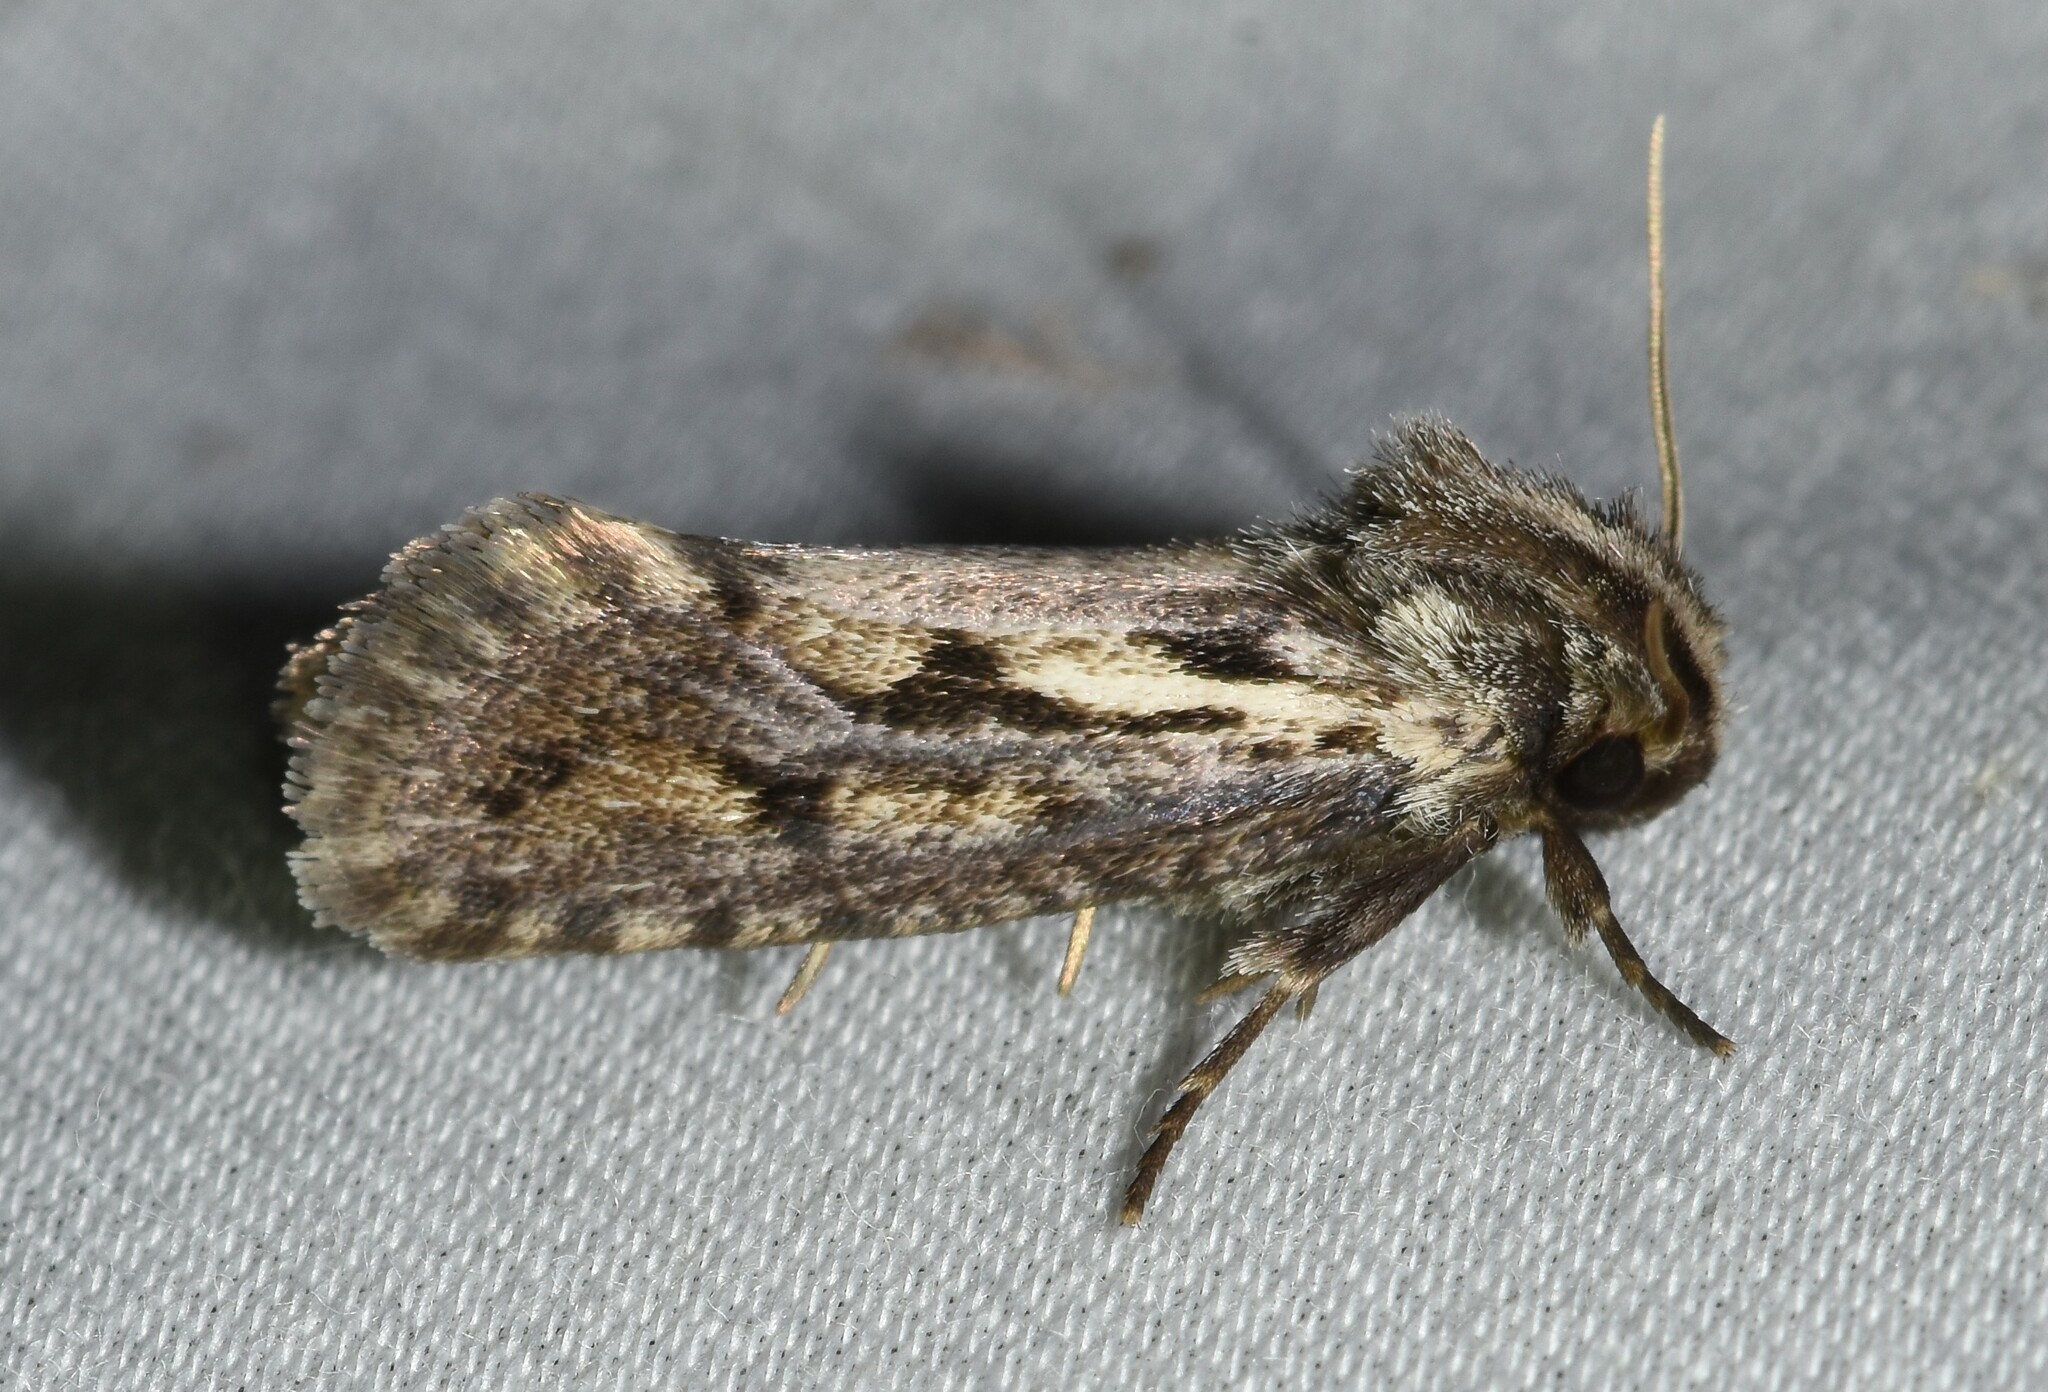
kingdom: Animalia
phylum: Arthropoda
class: Insecta
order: Lepidoptera
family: Tineidae
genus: Acrolophus
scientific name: Acrolophus popeanella
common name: Clemens' grass tubeworm moth
